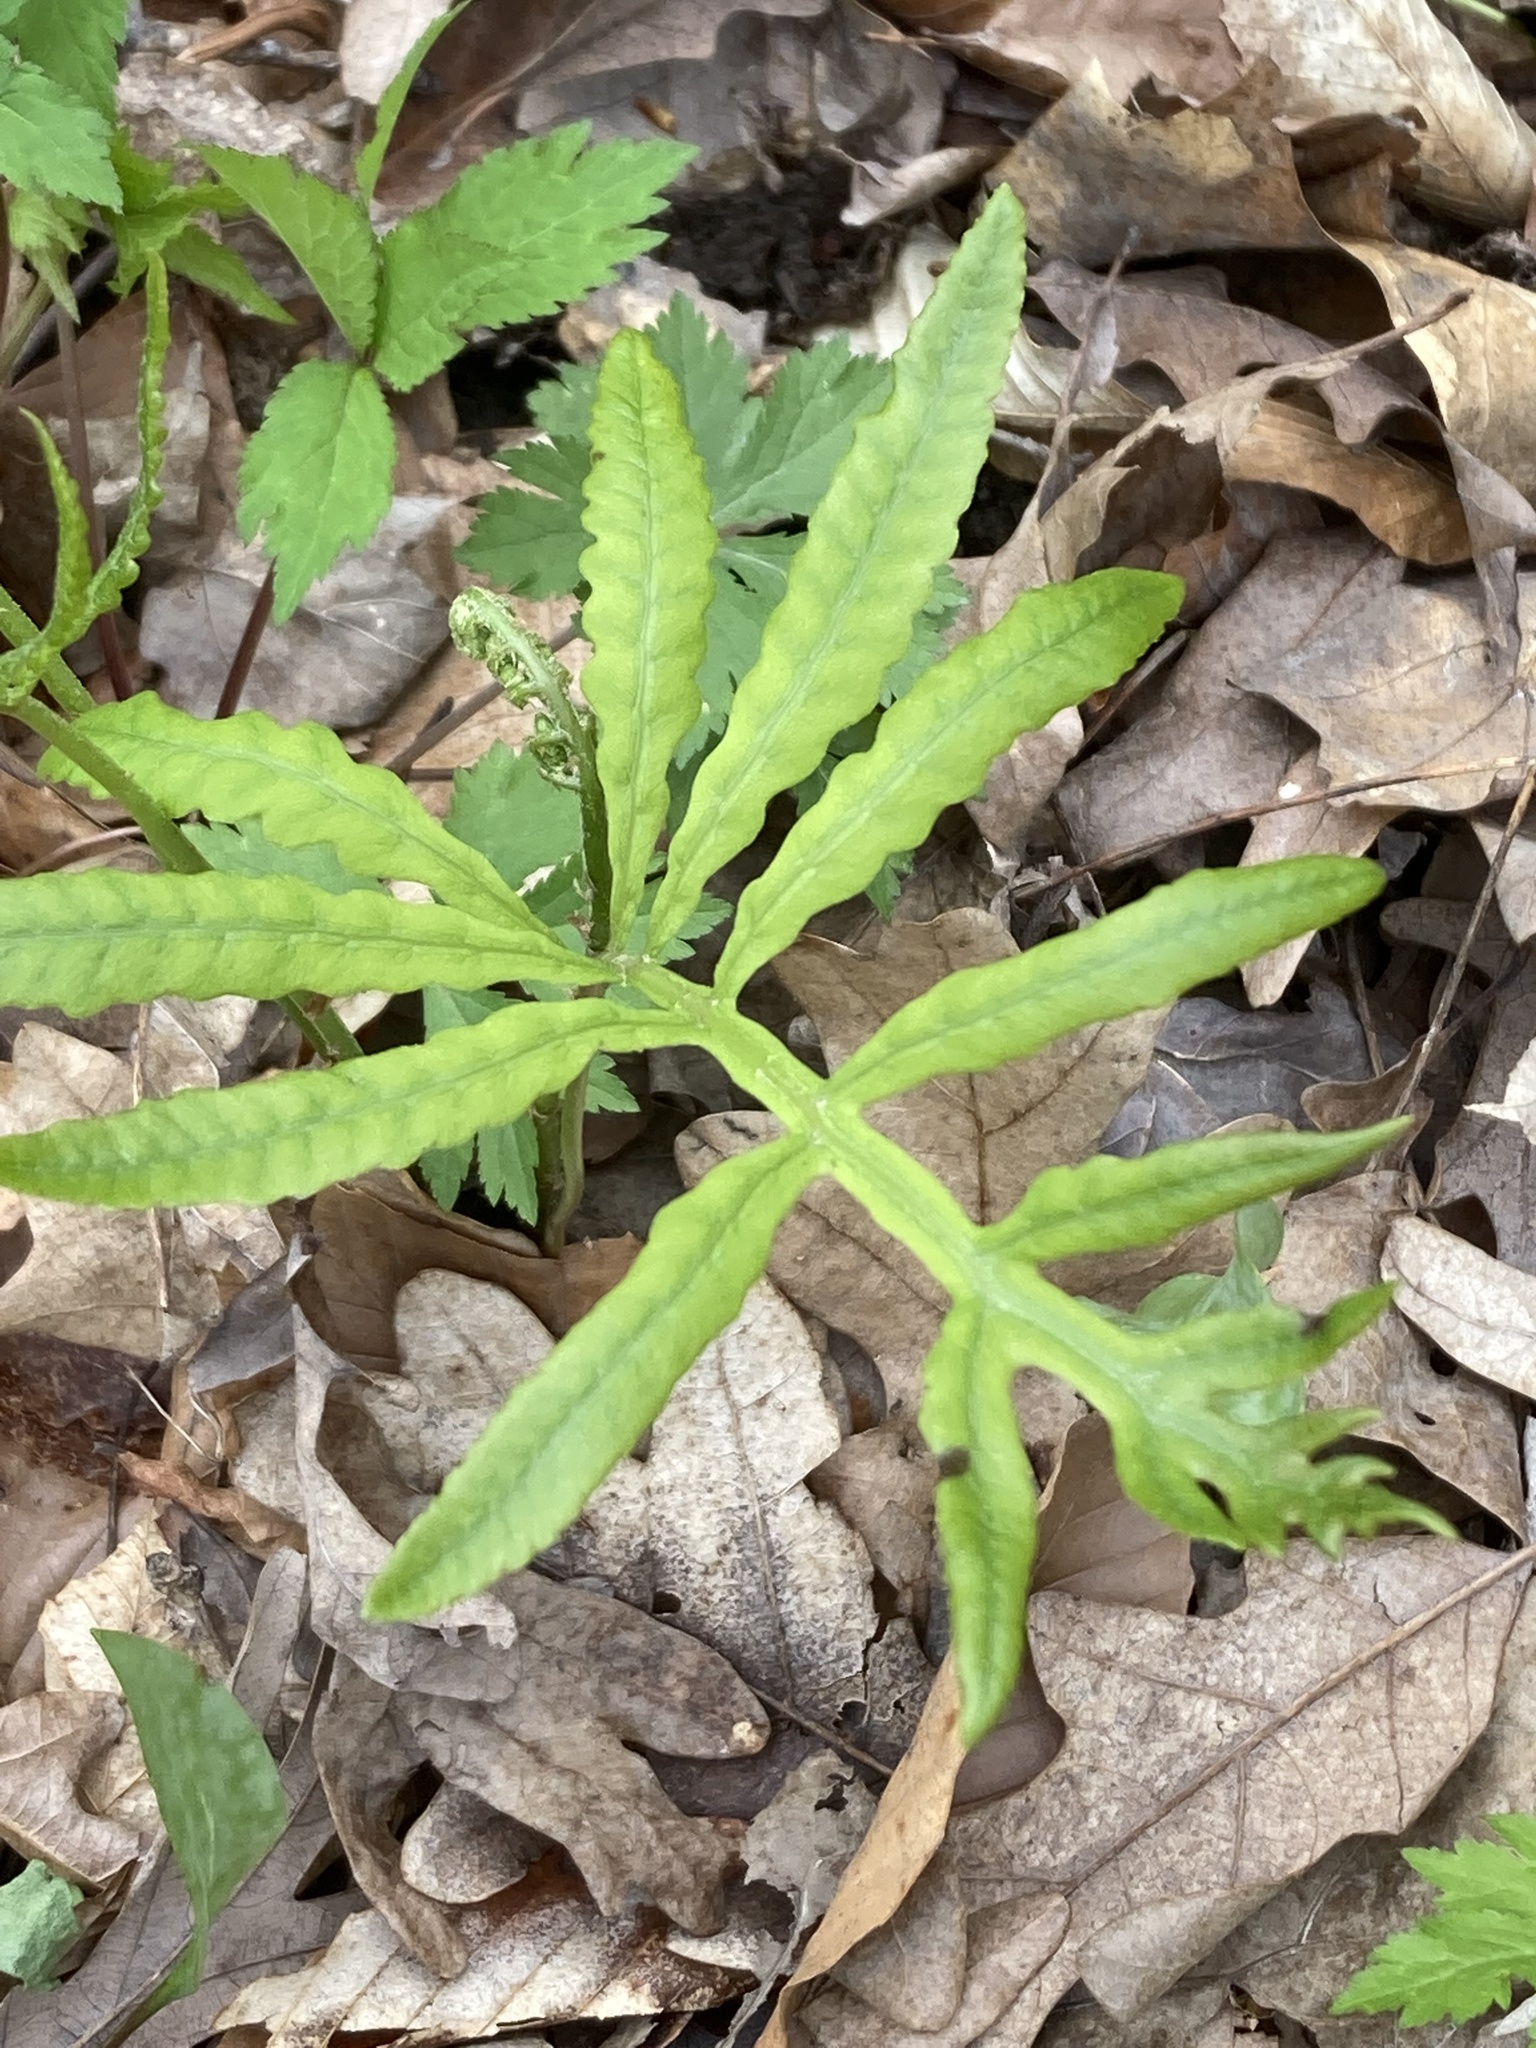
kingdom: Plantae
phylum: Tracheophyta
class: Polypodiopsida
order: Polypodiales
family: Onocleaceae
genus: Onoclea
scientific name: Onoclea sensibilis
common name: Sensitive fern
